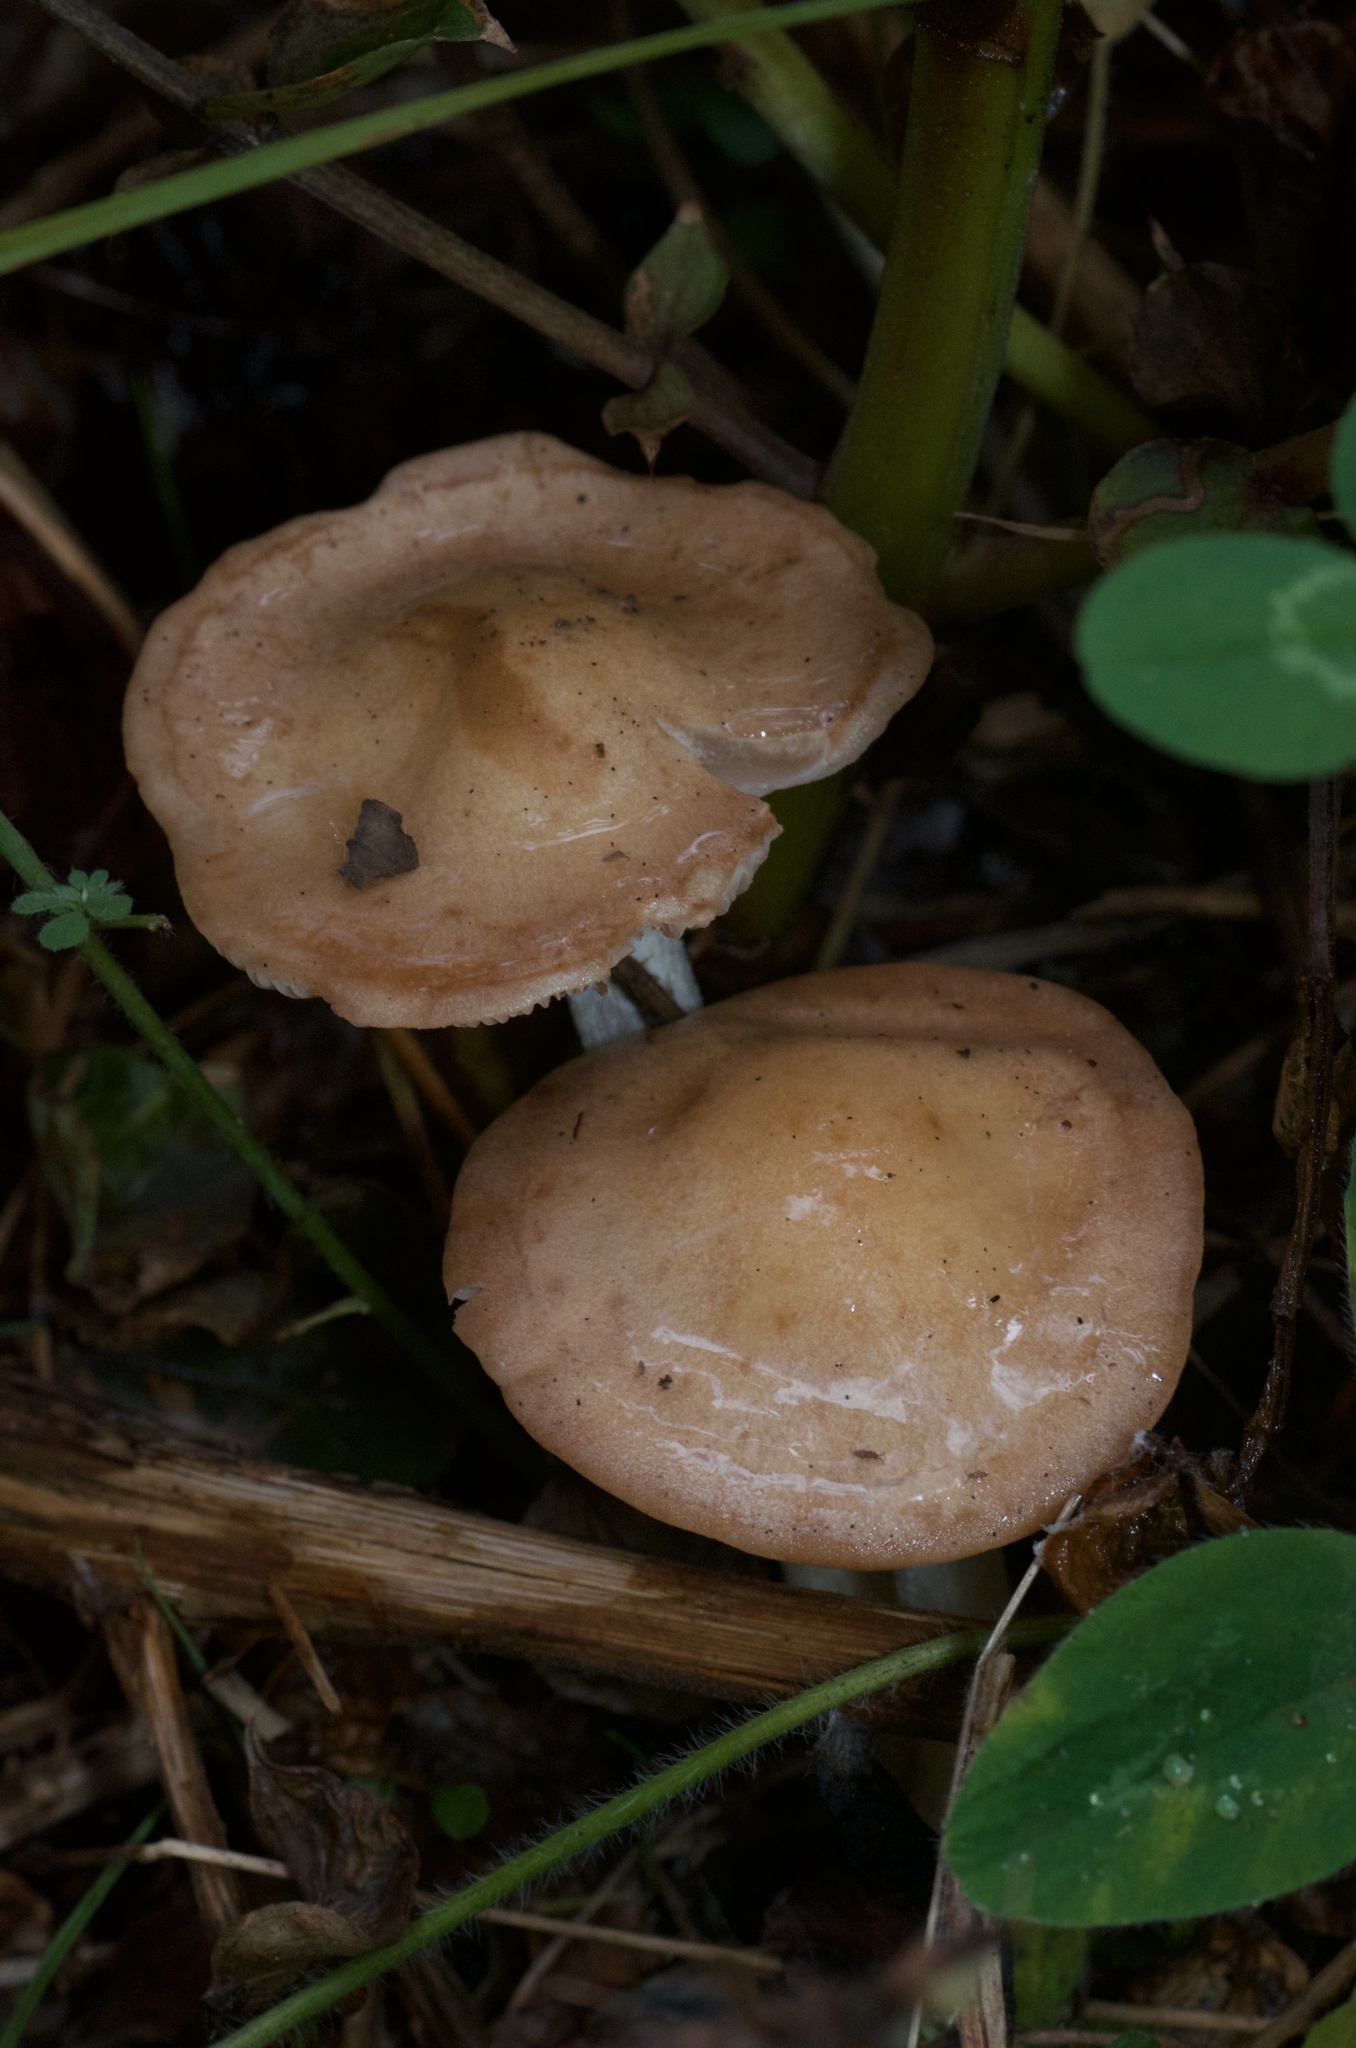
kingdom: Fungi
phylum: Basidiomycota
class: Agaricomycetes
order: Agaricales
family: Hymenogastraceae
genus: Hebeloma
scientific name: Hebeloma leucosarx
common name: Birch poisonpie
